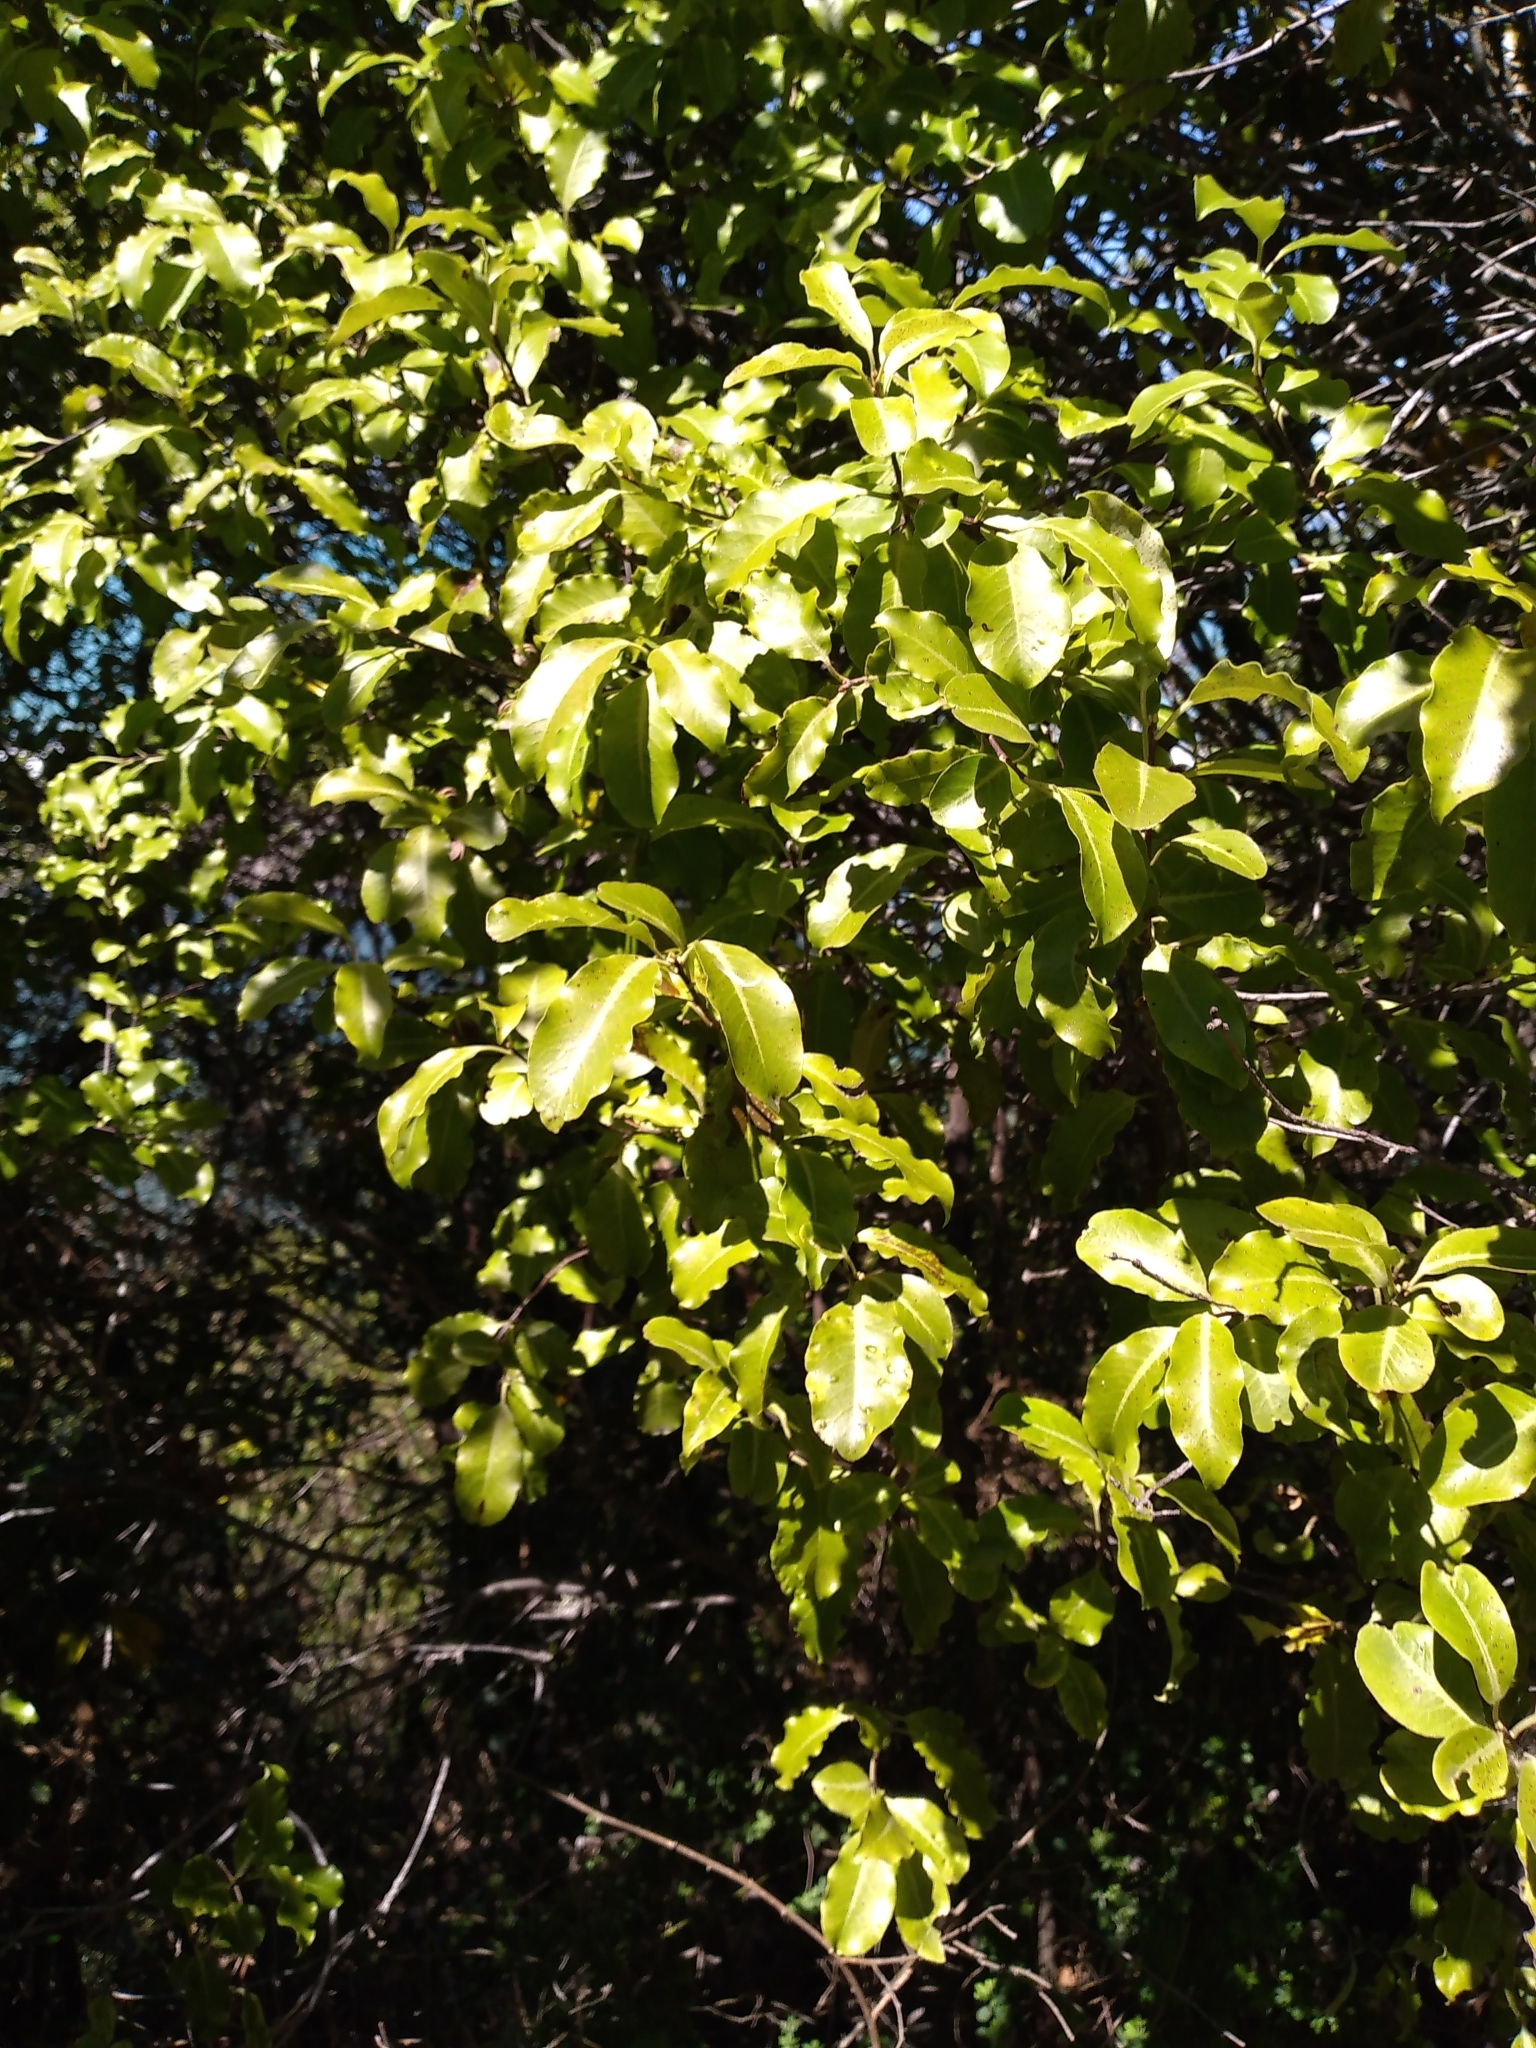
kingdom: Plantae
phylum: Tracheophyta
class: Magnoliopsida
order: Apiales
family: Pittosporaceae
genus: Pittosporum
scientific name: Pittosporum tenuifolium
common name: Kohuhu
